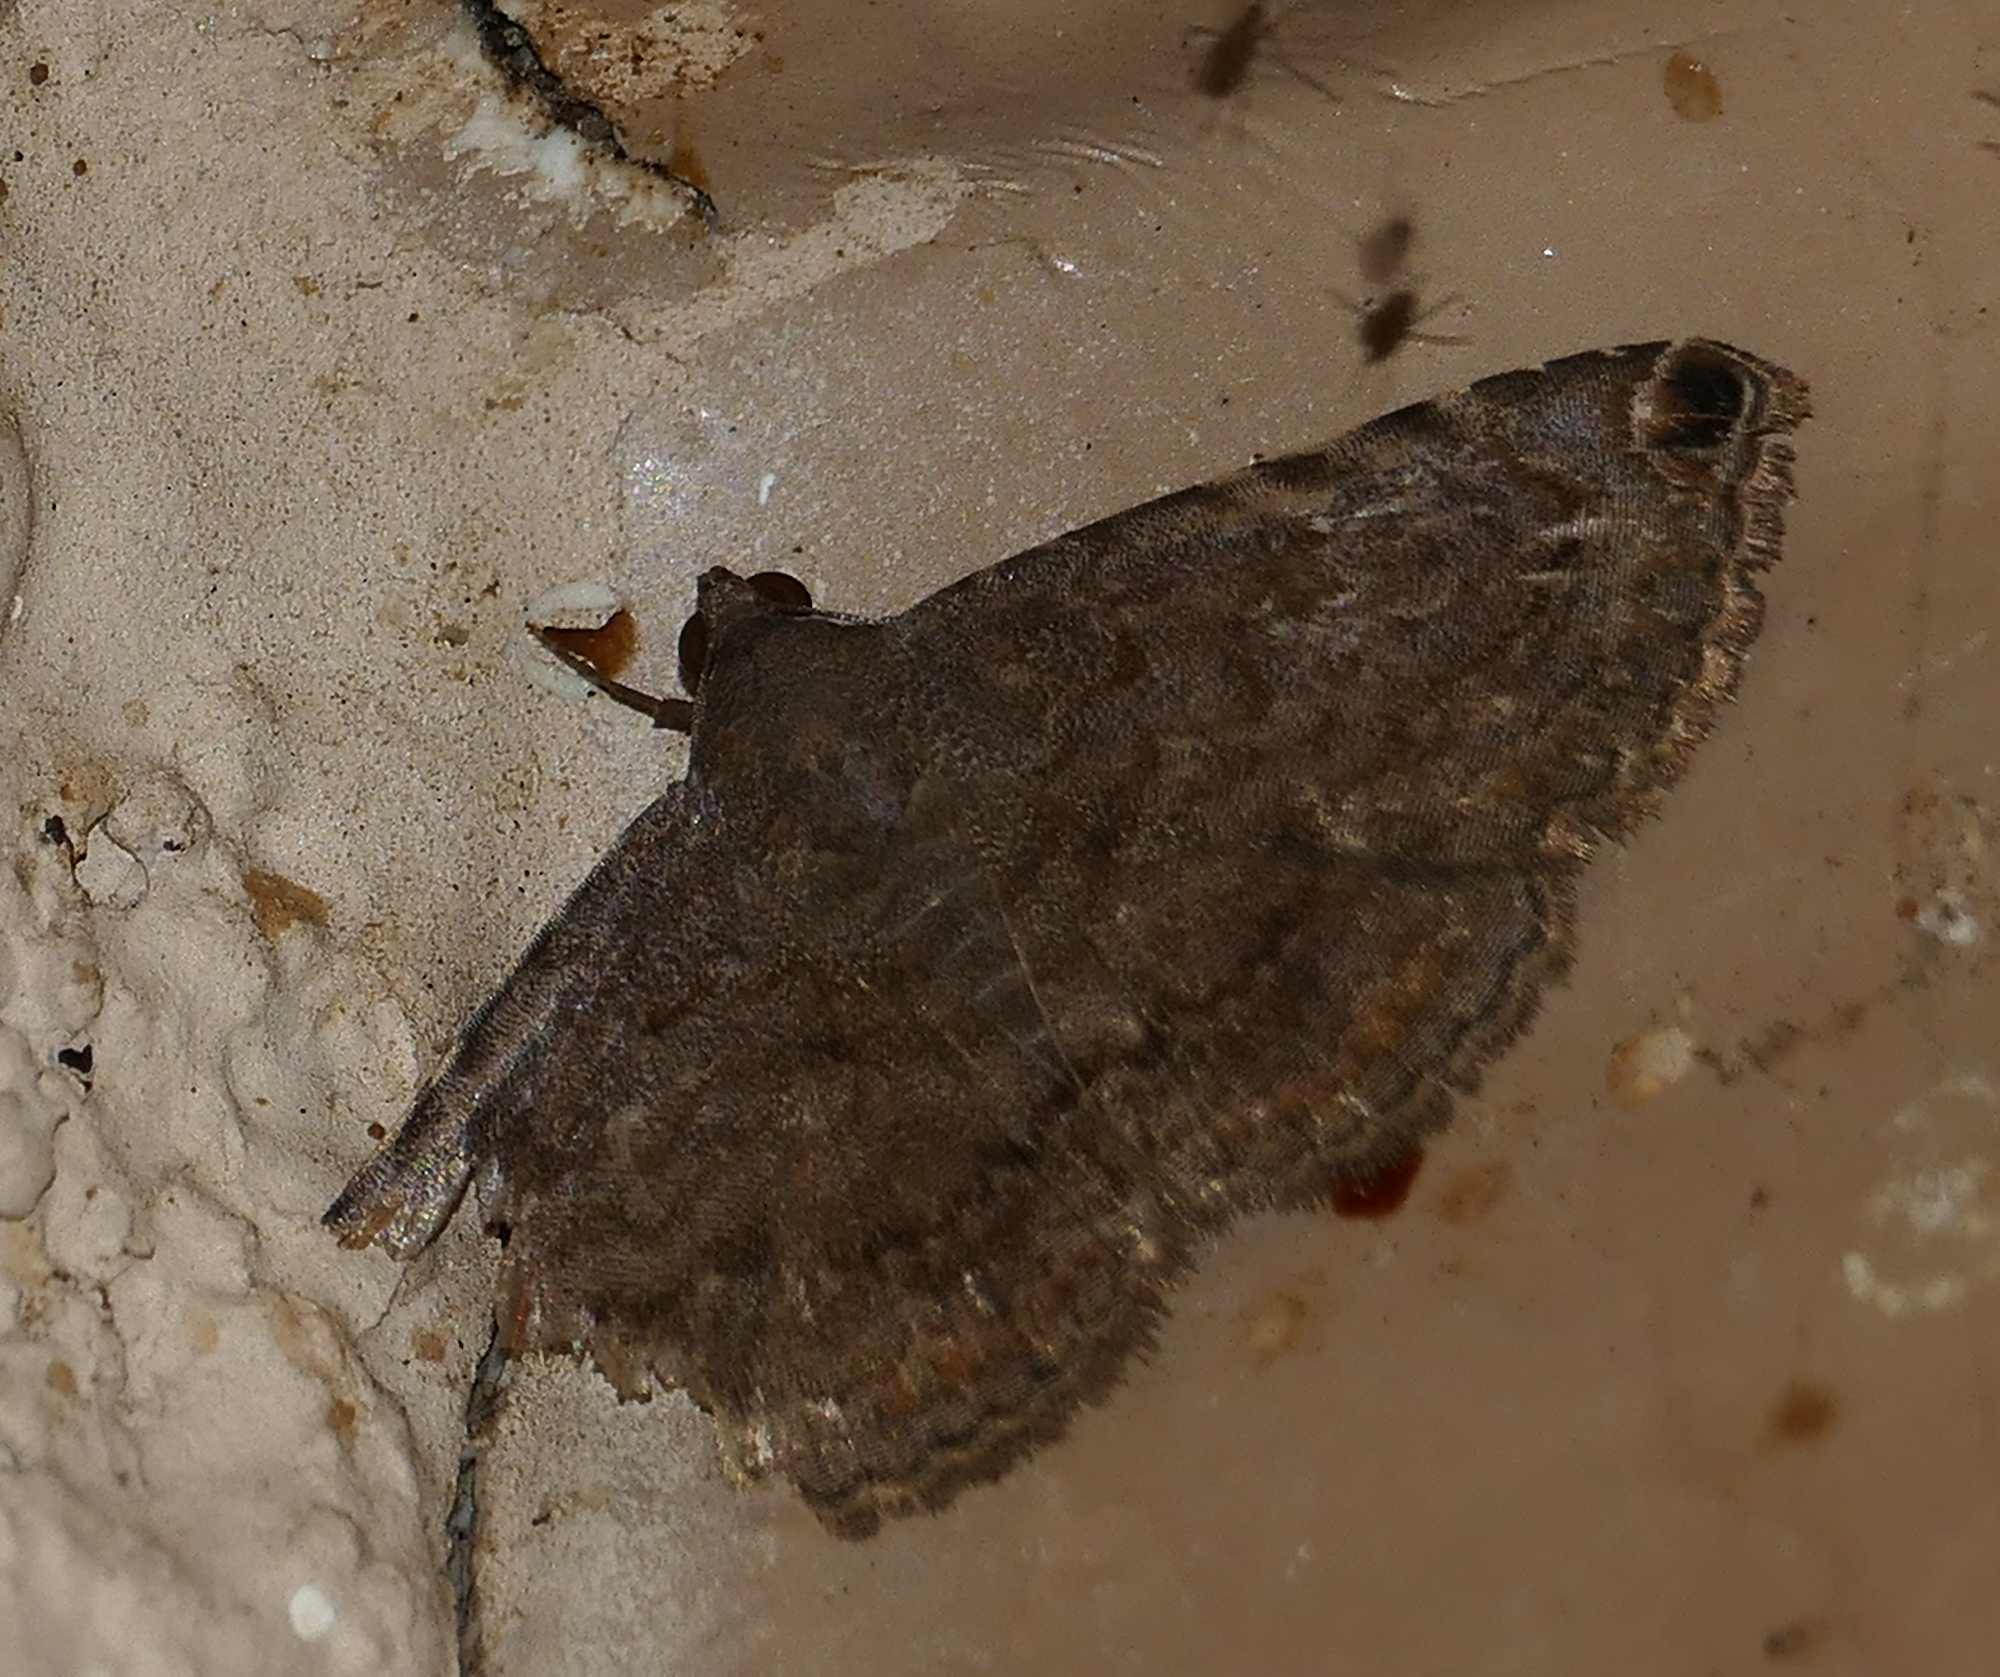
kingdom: Animalia
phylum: Arthropoda
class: Insecta
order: Lepidoptera
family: Erebidae
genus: Toxonprucha
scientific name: Toxonprucha pardalis
